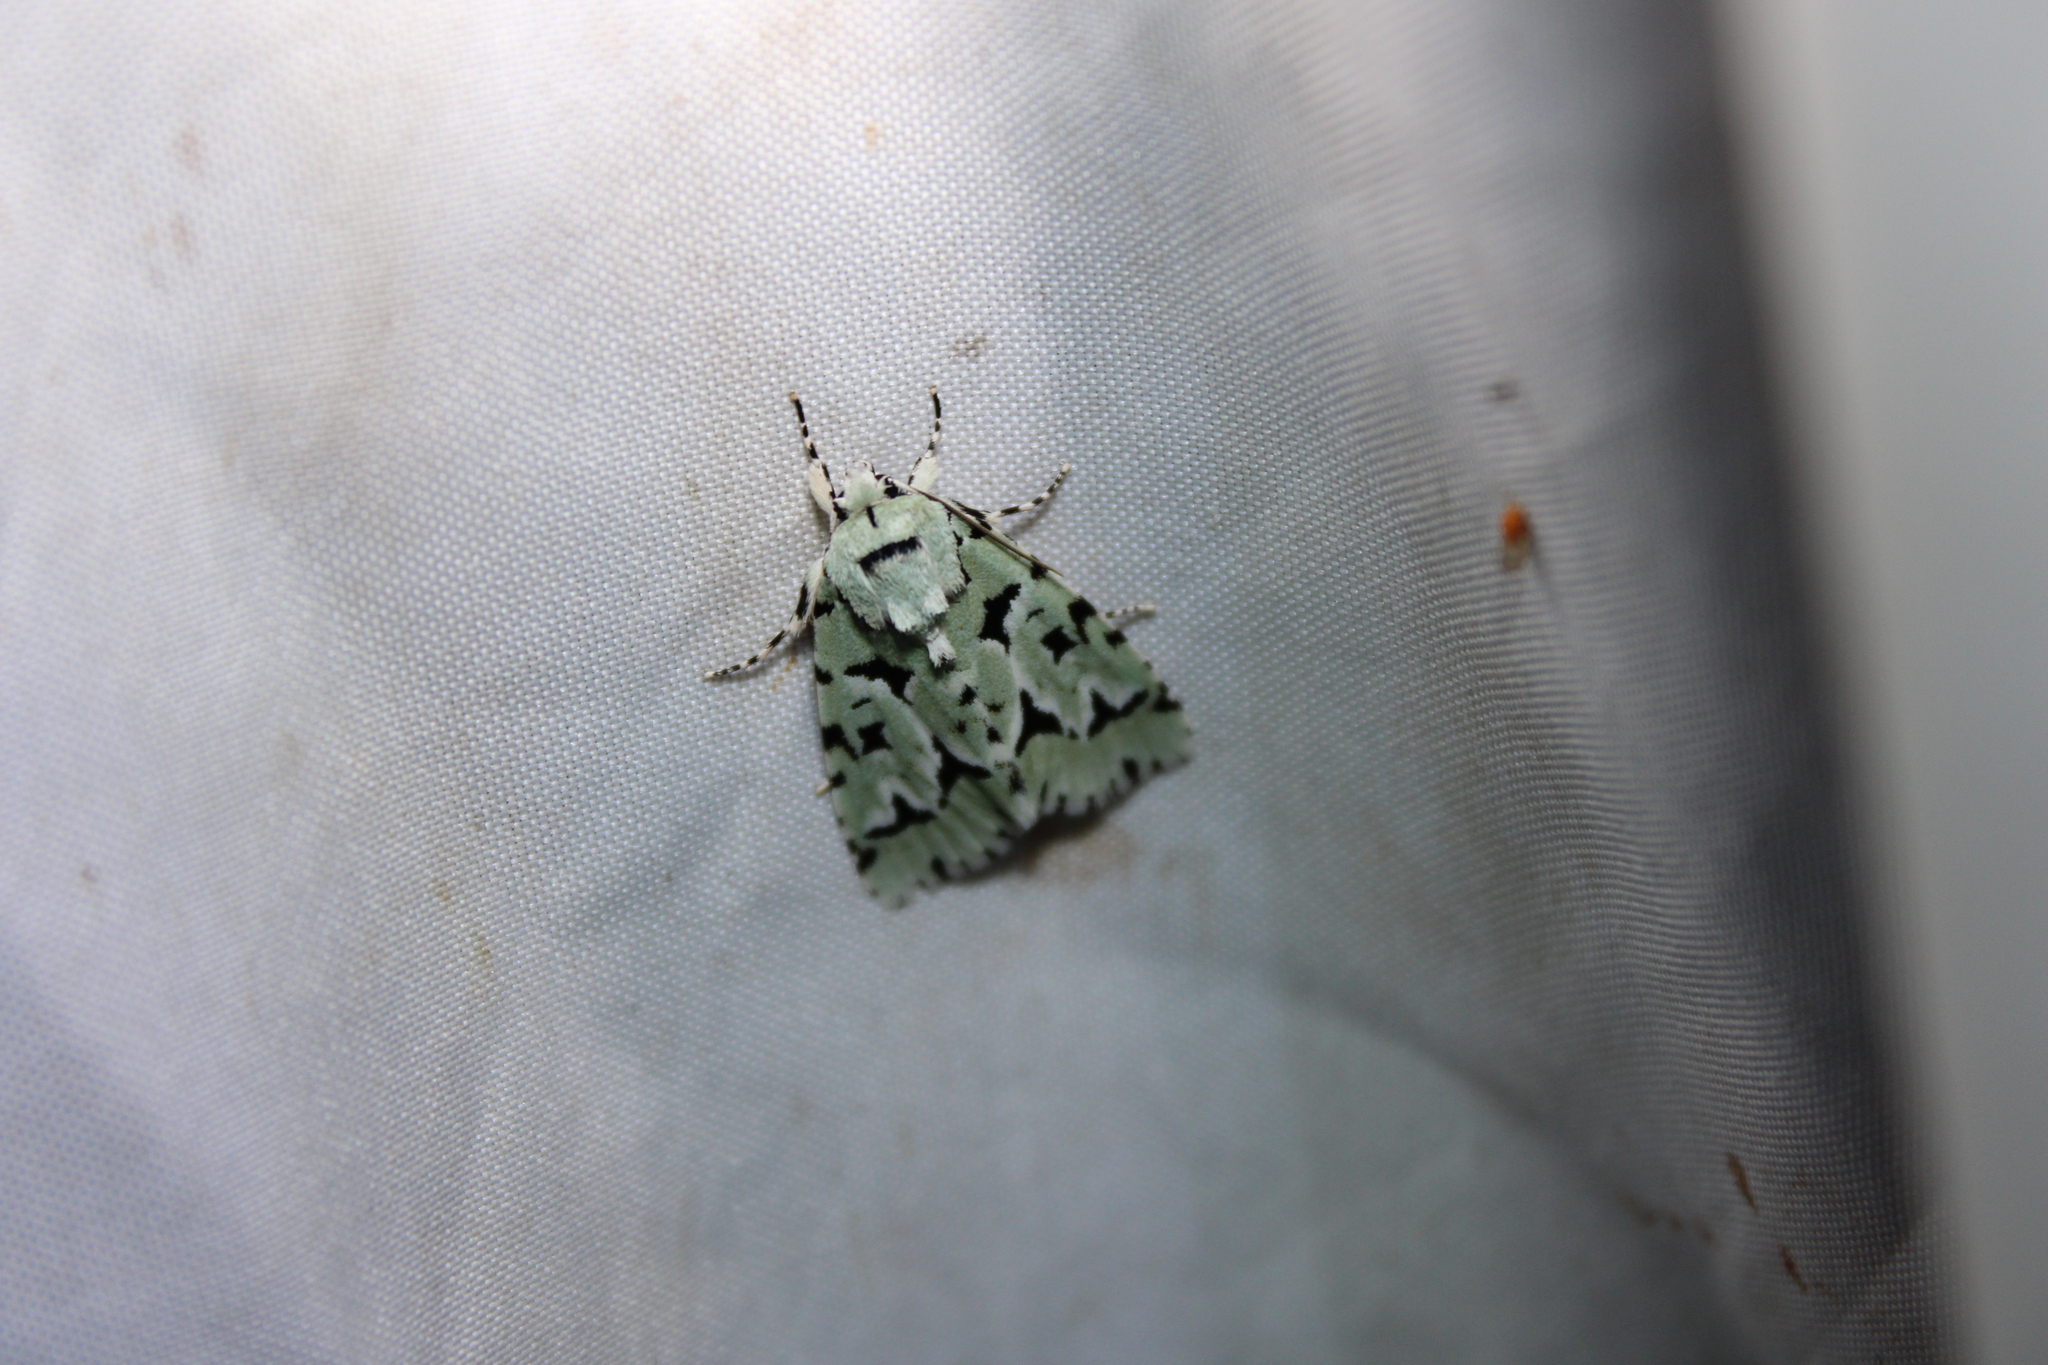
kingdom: Animalia
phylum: Arthropoda
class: Insecta
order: Lepidoptera
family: Noctuidae
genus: Acronicta
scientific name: Acronicta fallax
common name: Green marvel
